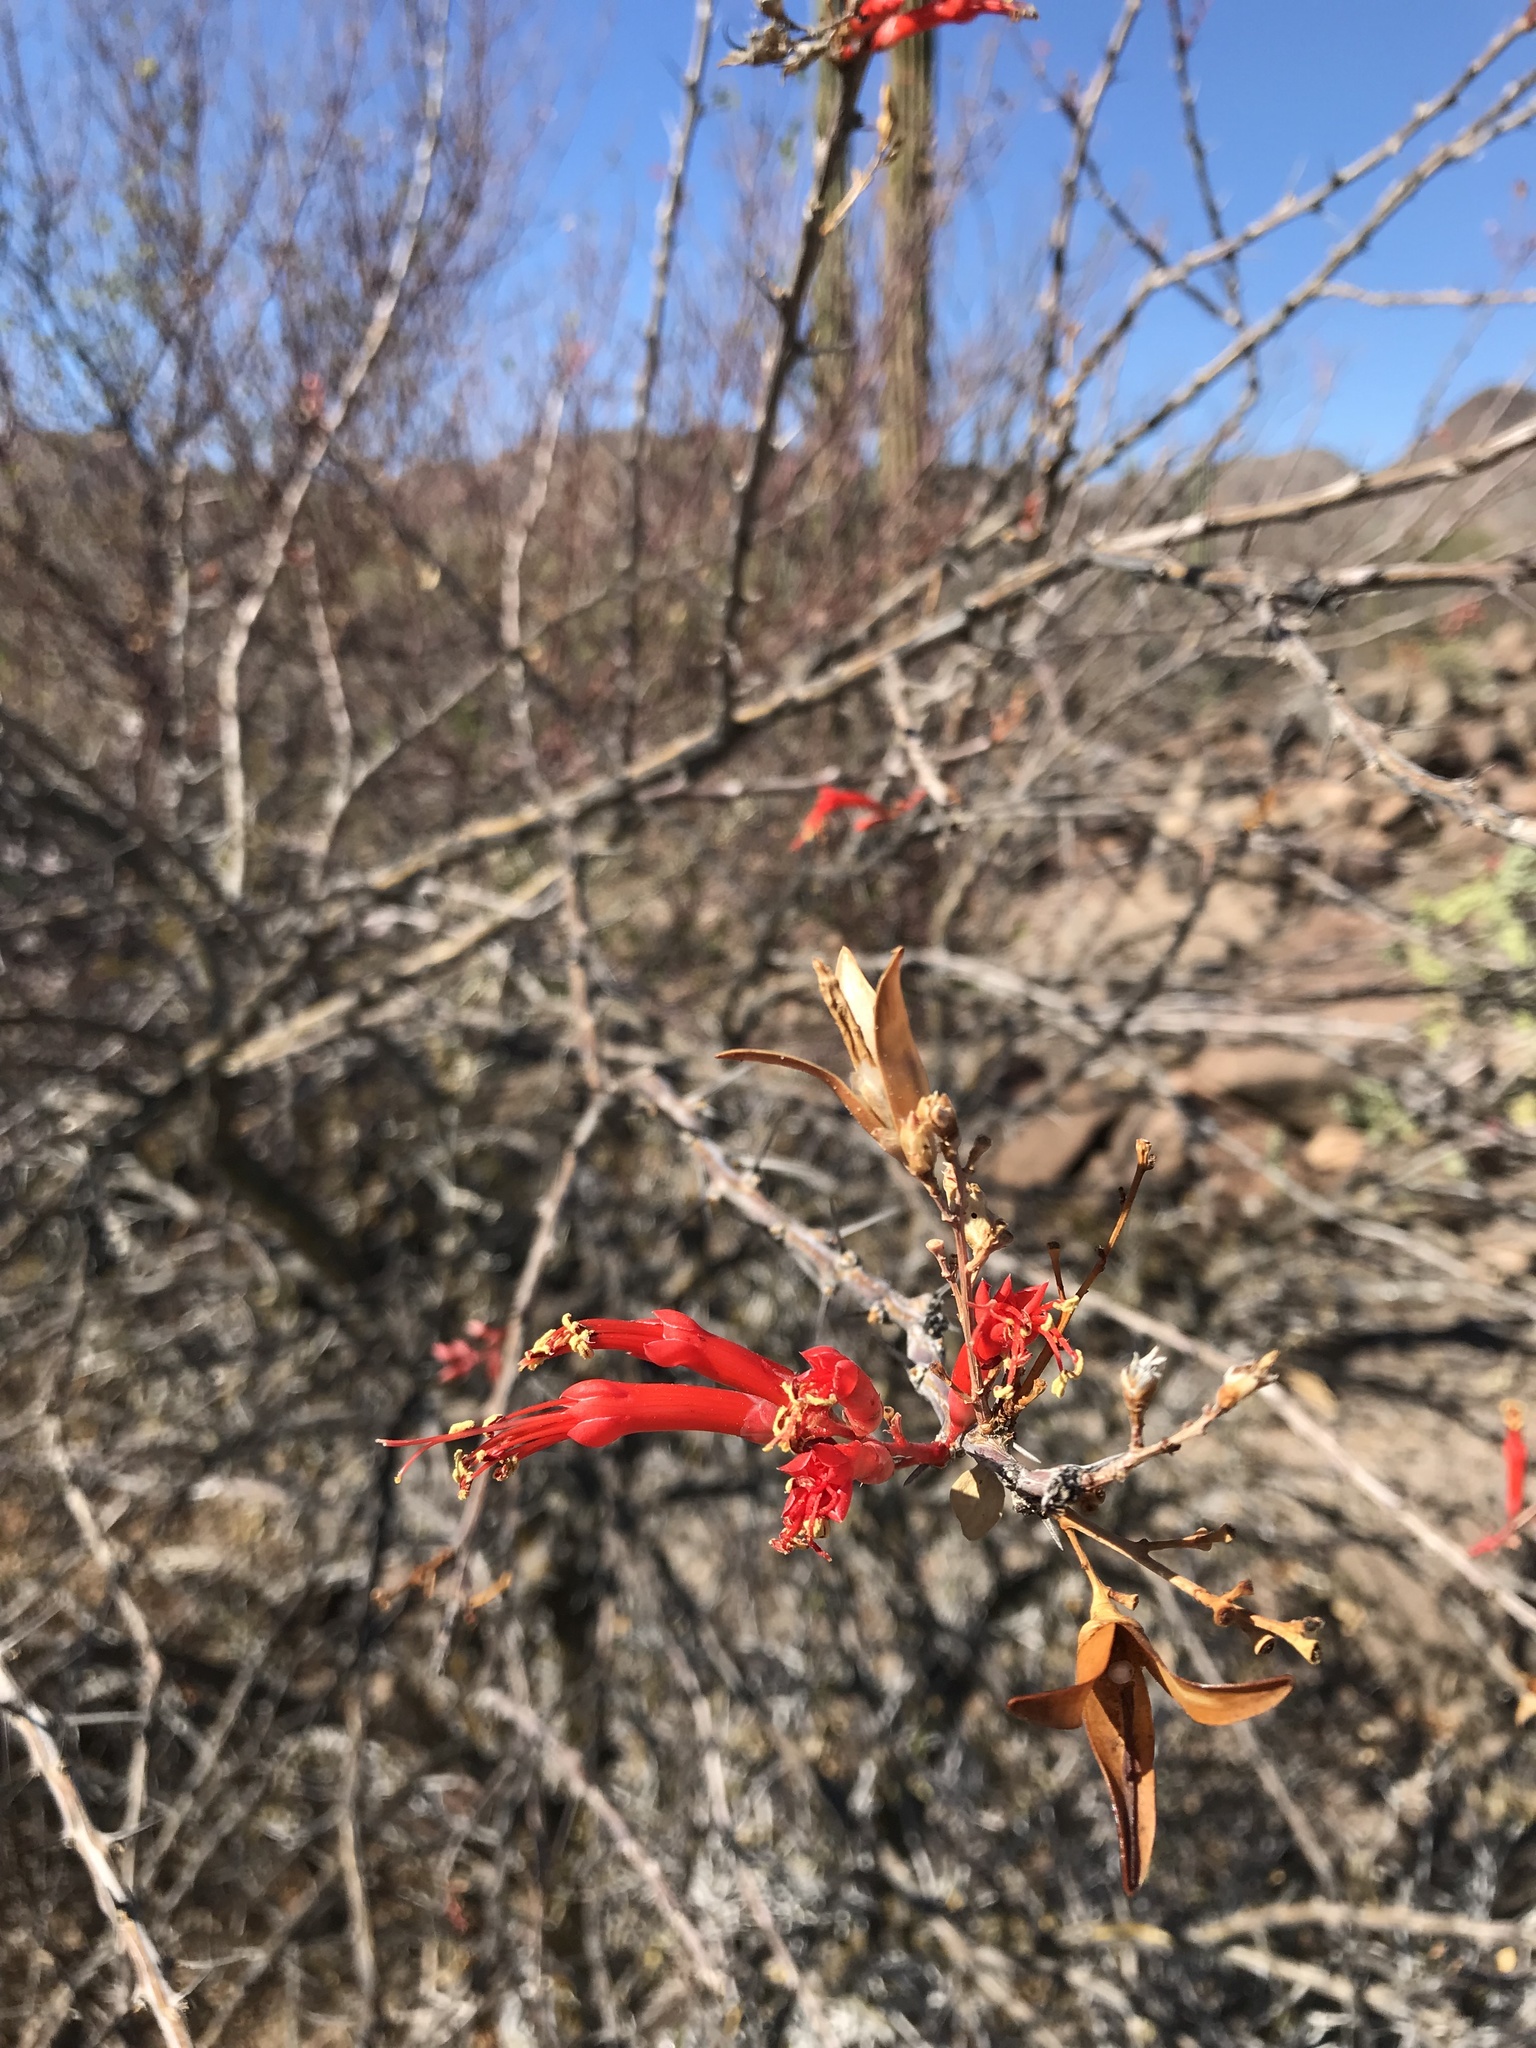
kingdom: Plantae
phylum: Tracheophyta
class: Magnoliopsida
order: Ericales
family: Fouquieriaceae
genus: Fouquieria
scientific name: Fouquieria diguetii
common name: Adam's tree
